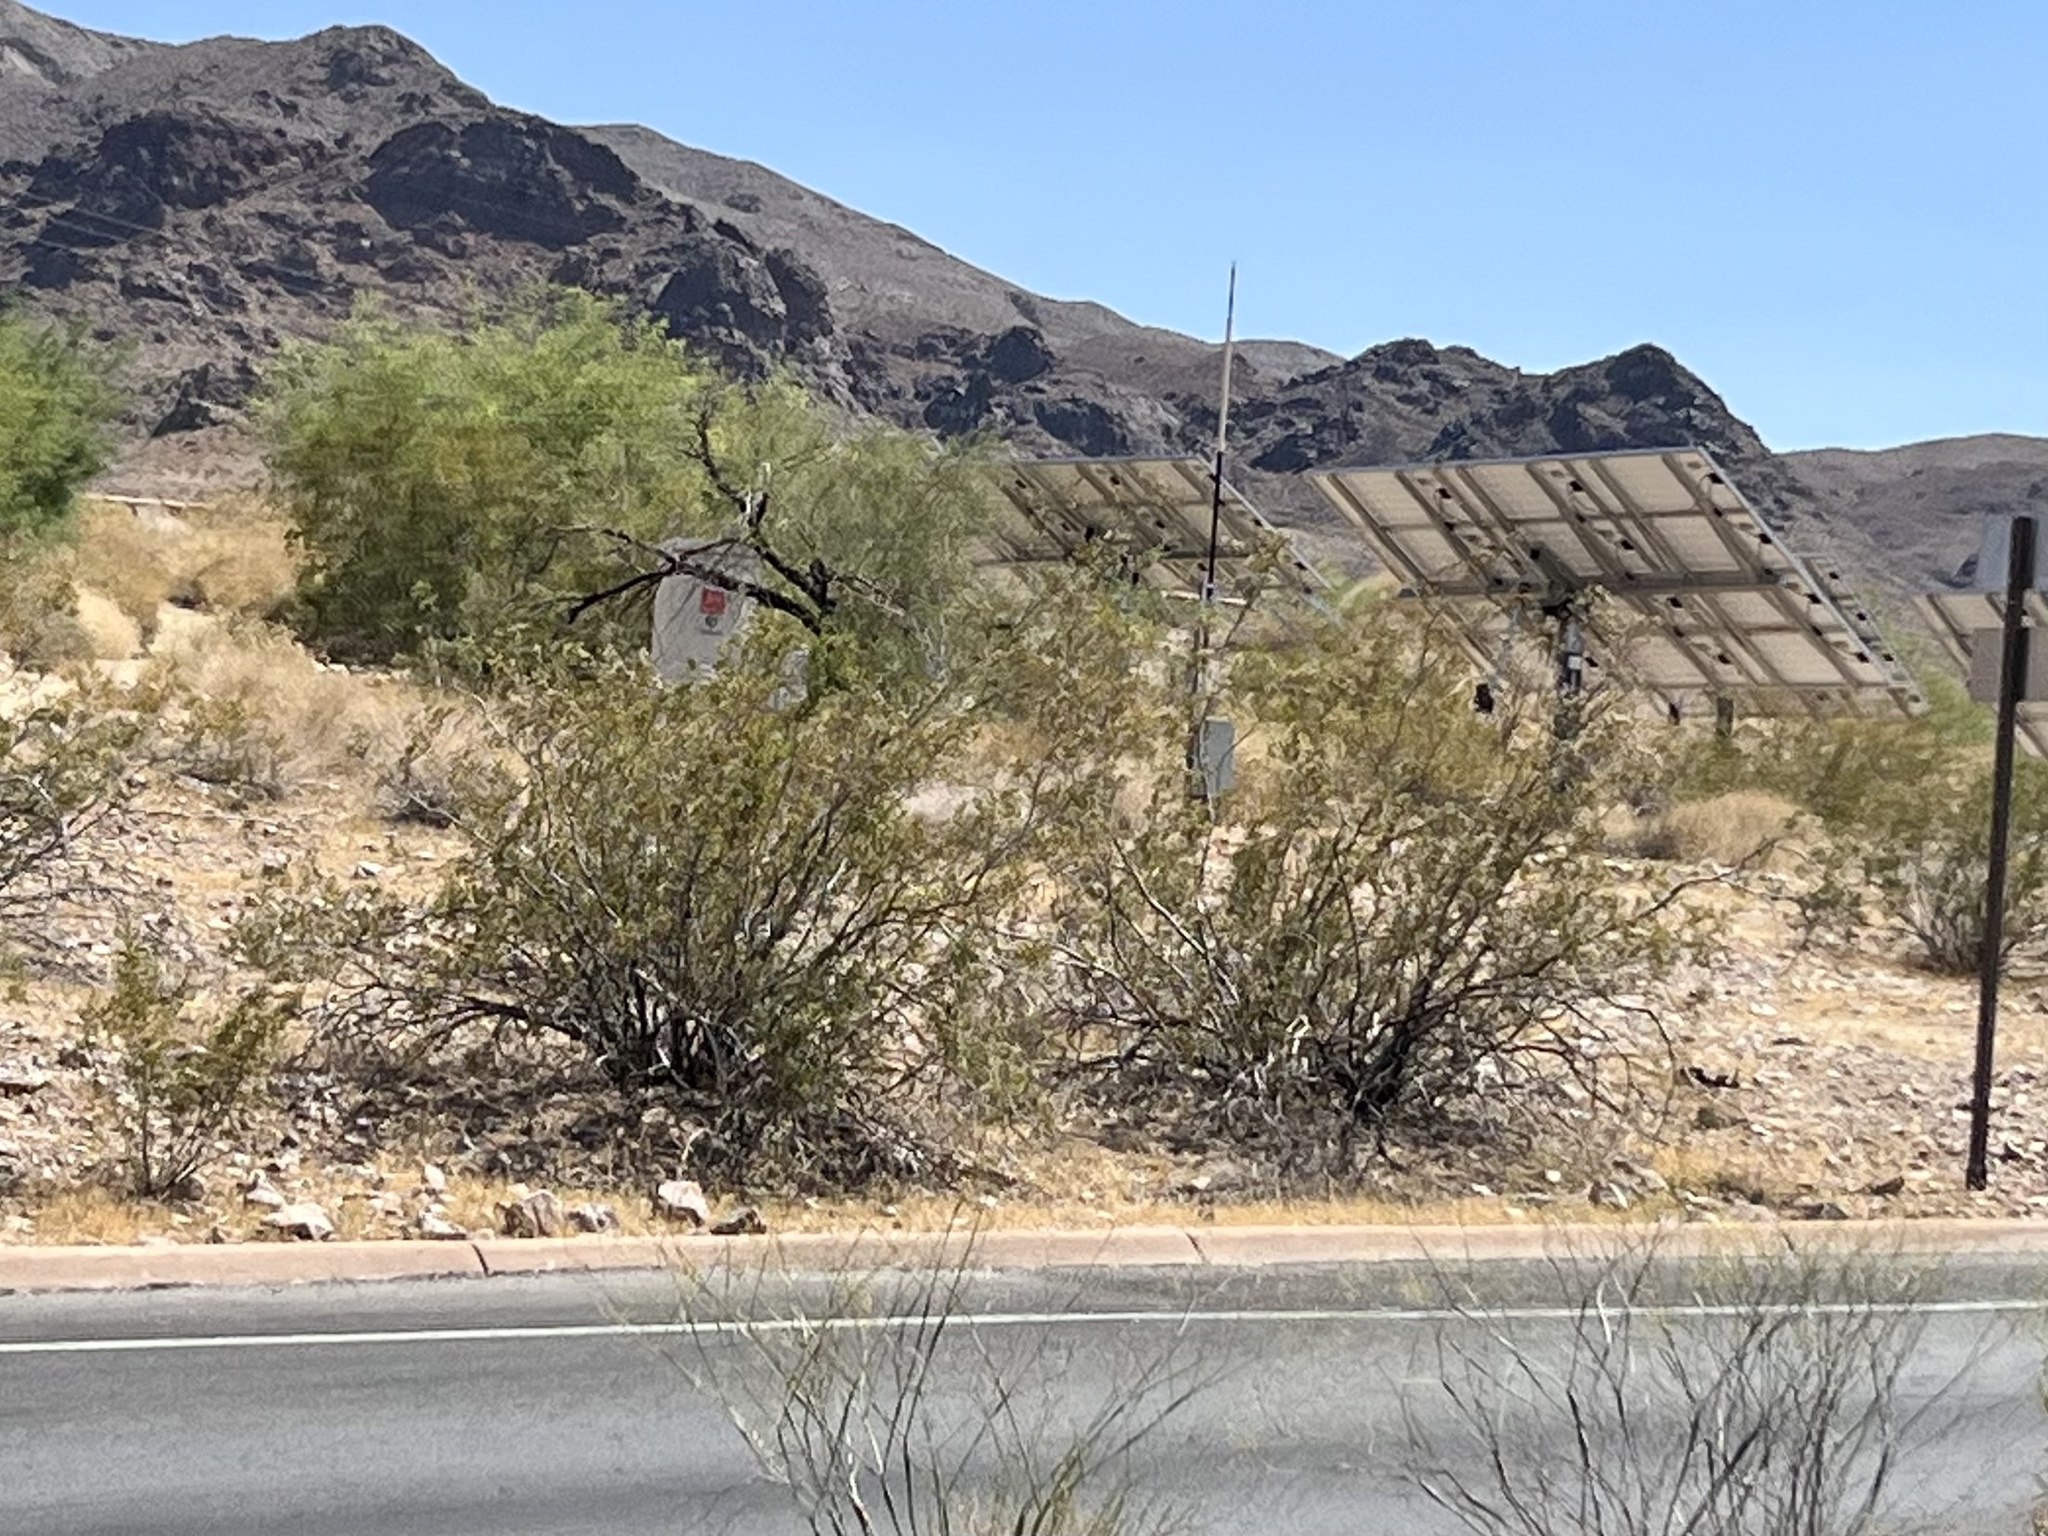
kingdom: Plantae
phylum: Tracheophyta
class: Magnoliopsida
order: Zygophyllales
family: Zygophyllaceae
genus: Larrea
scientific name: Larrea tridentata
